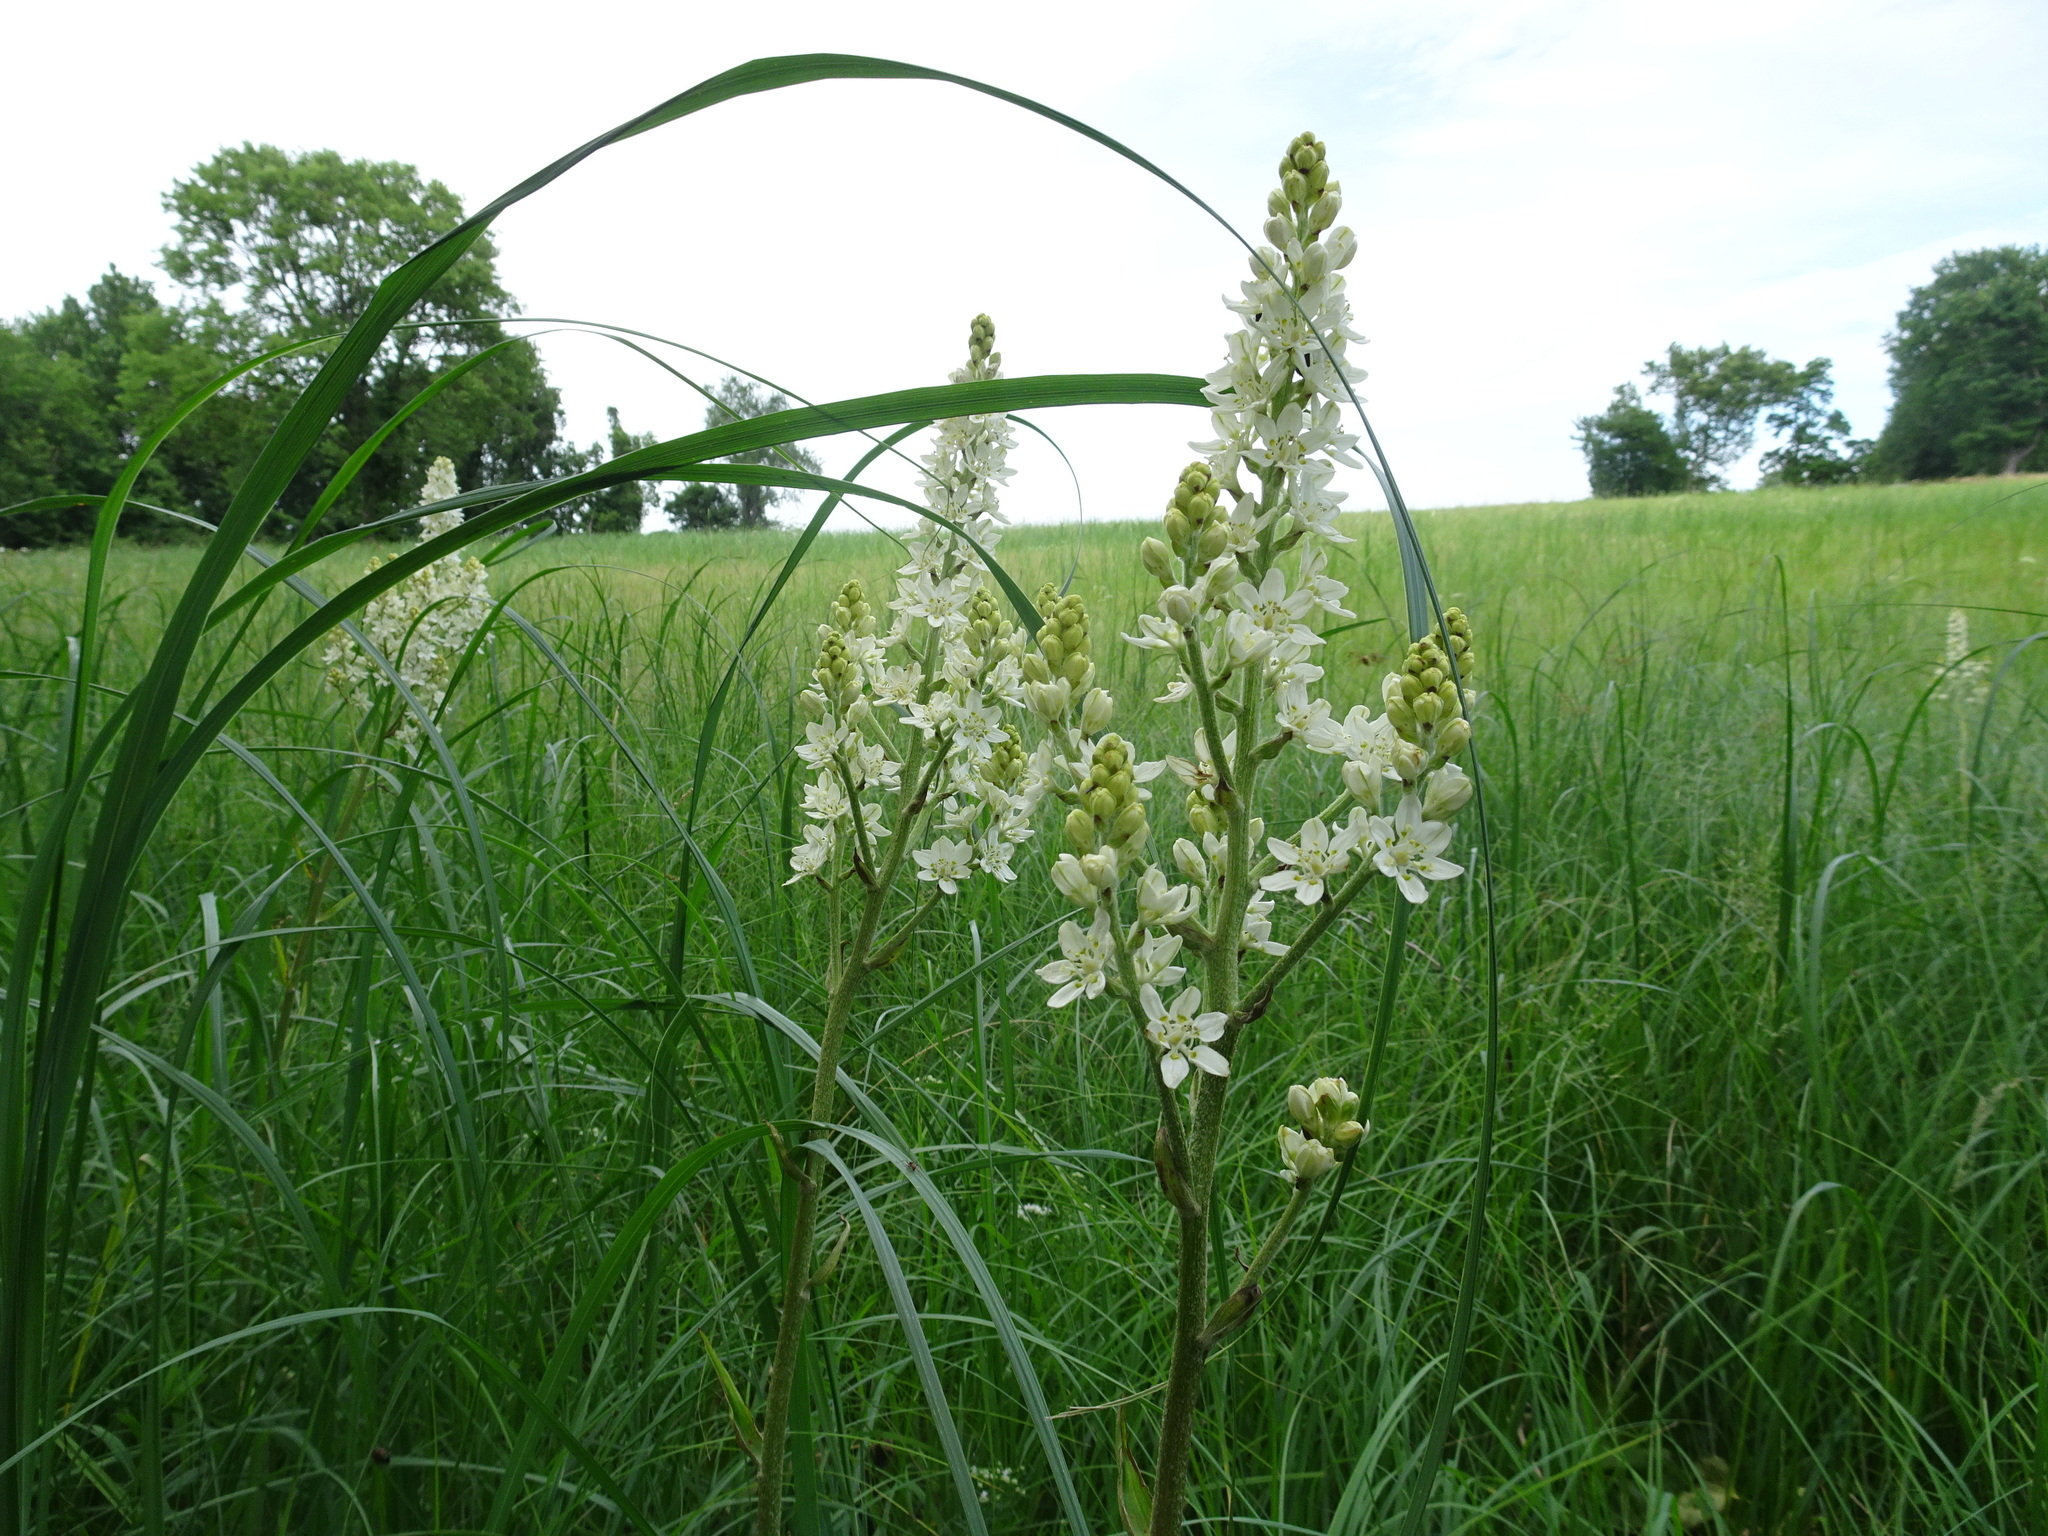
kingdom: Plantae
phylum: Tracheophyta
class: Liliopsida
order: Liliales
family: Melanthiaceae
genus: Melanthium
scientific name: Melanthium virginicum
